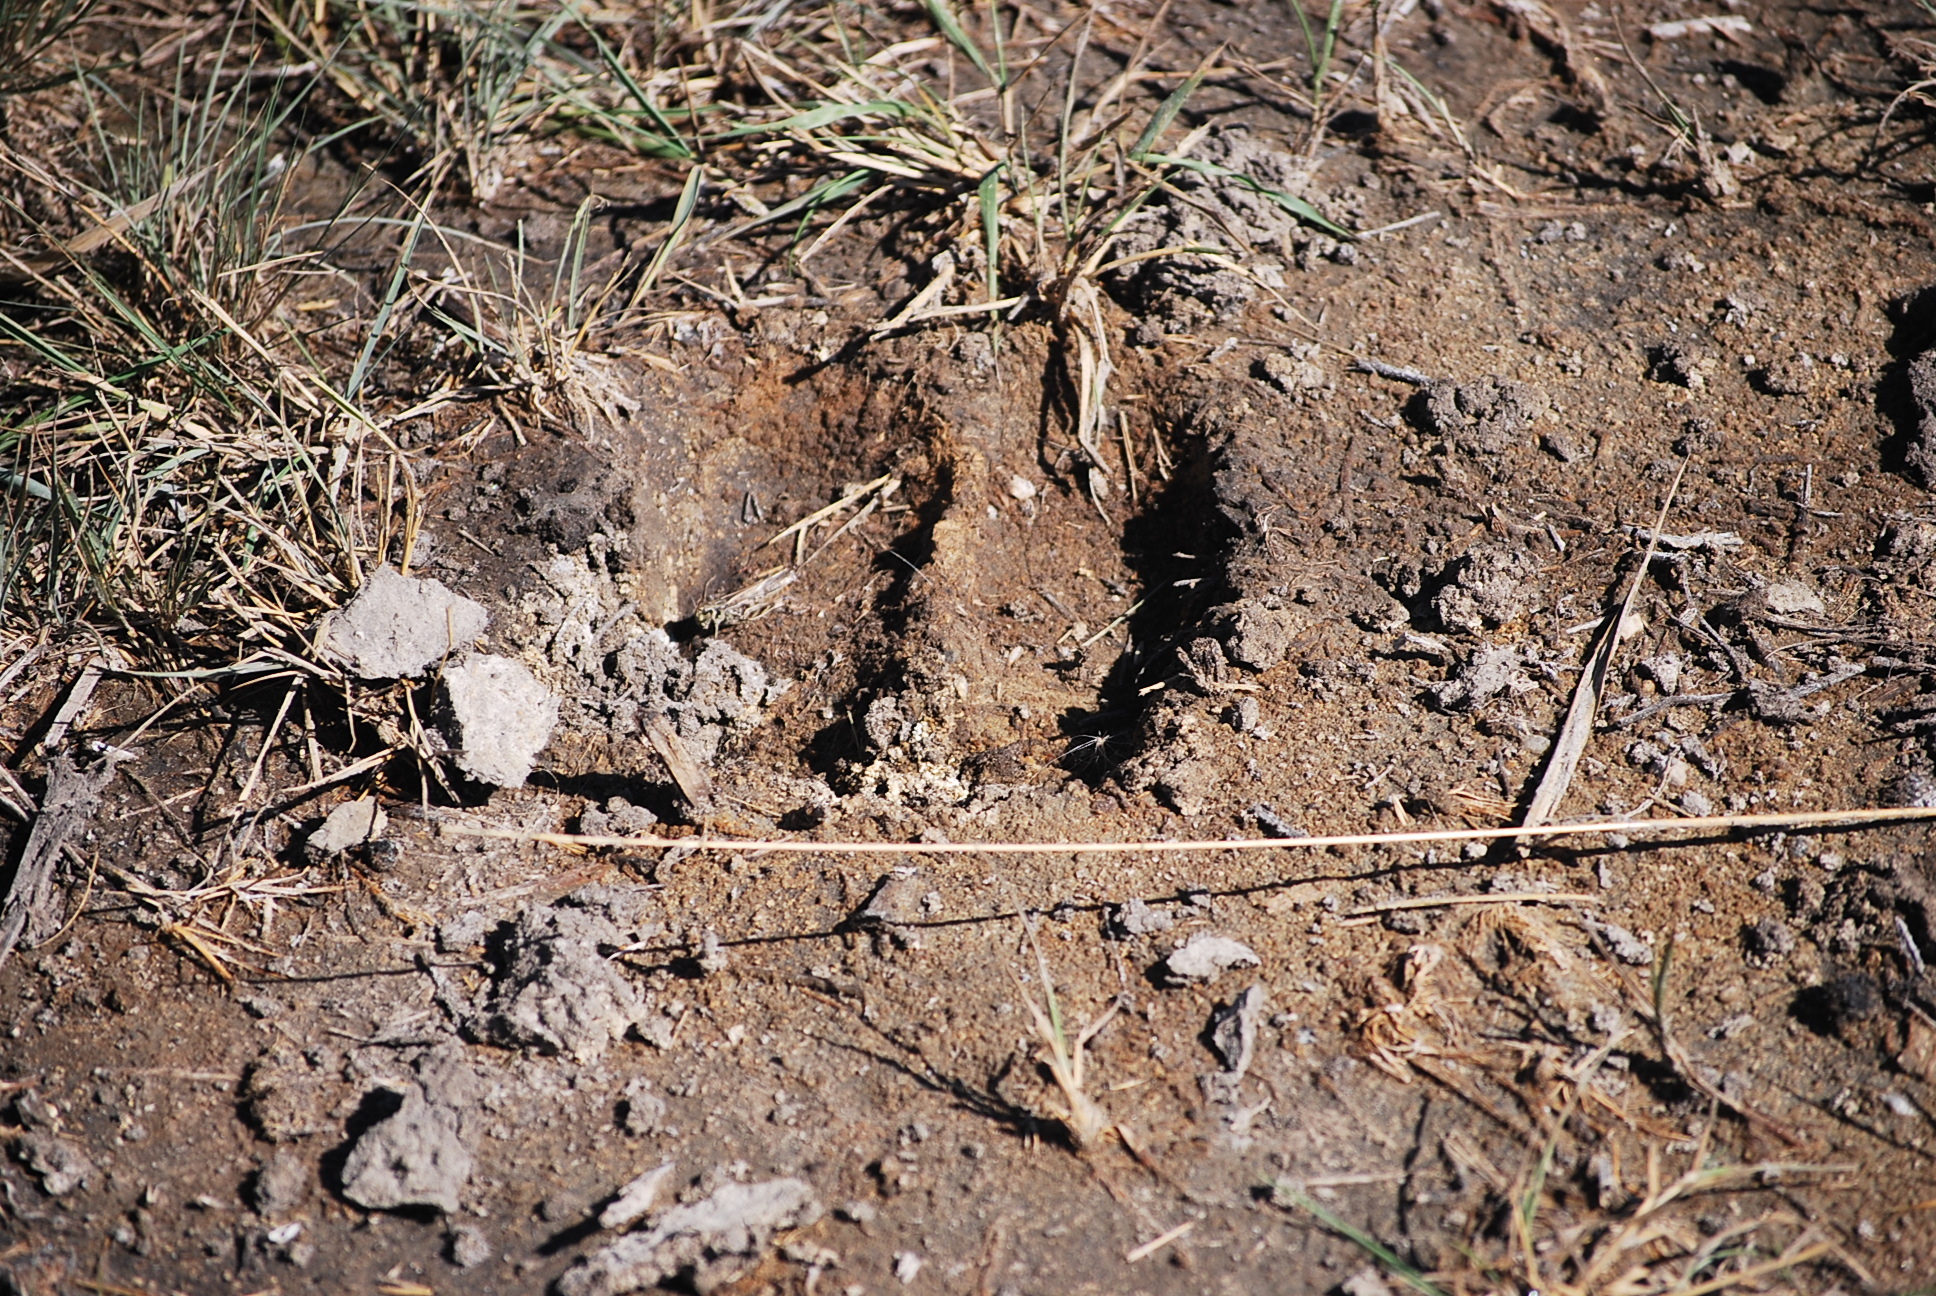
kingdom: Animalia
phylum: Chordata
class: Mammalia
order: Artiodactyla
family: Cervidae
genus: Alces
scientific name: Alces alces
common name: Moose
